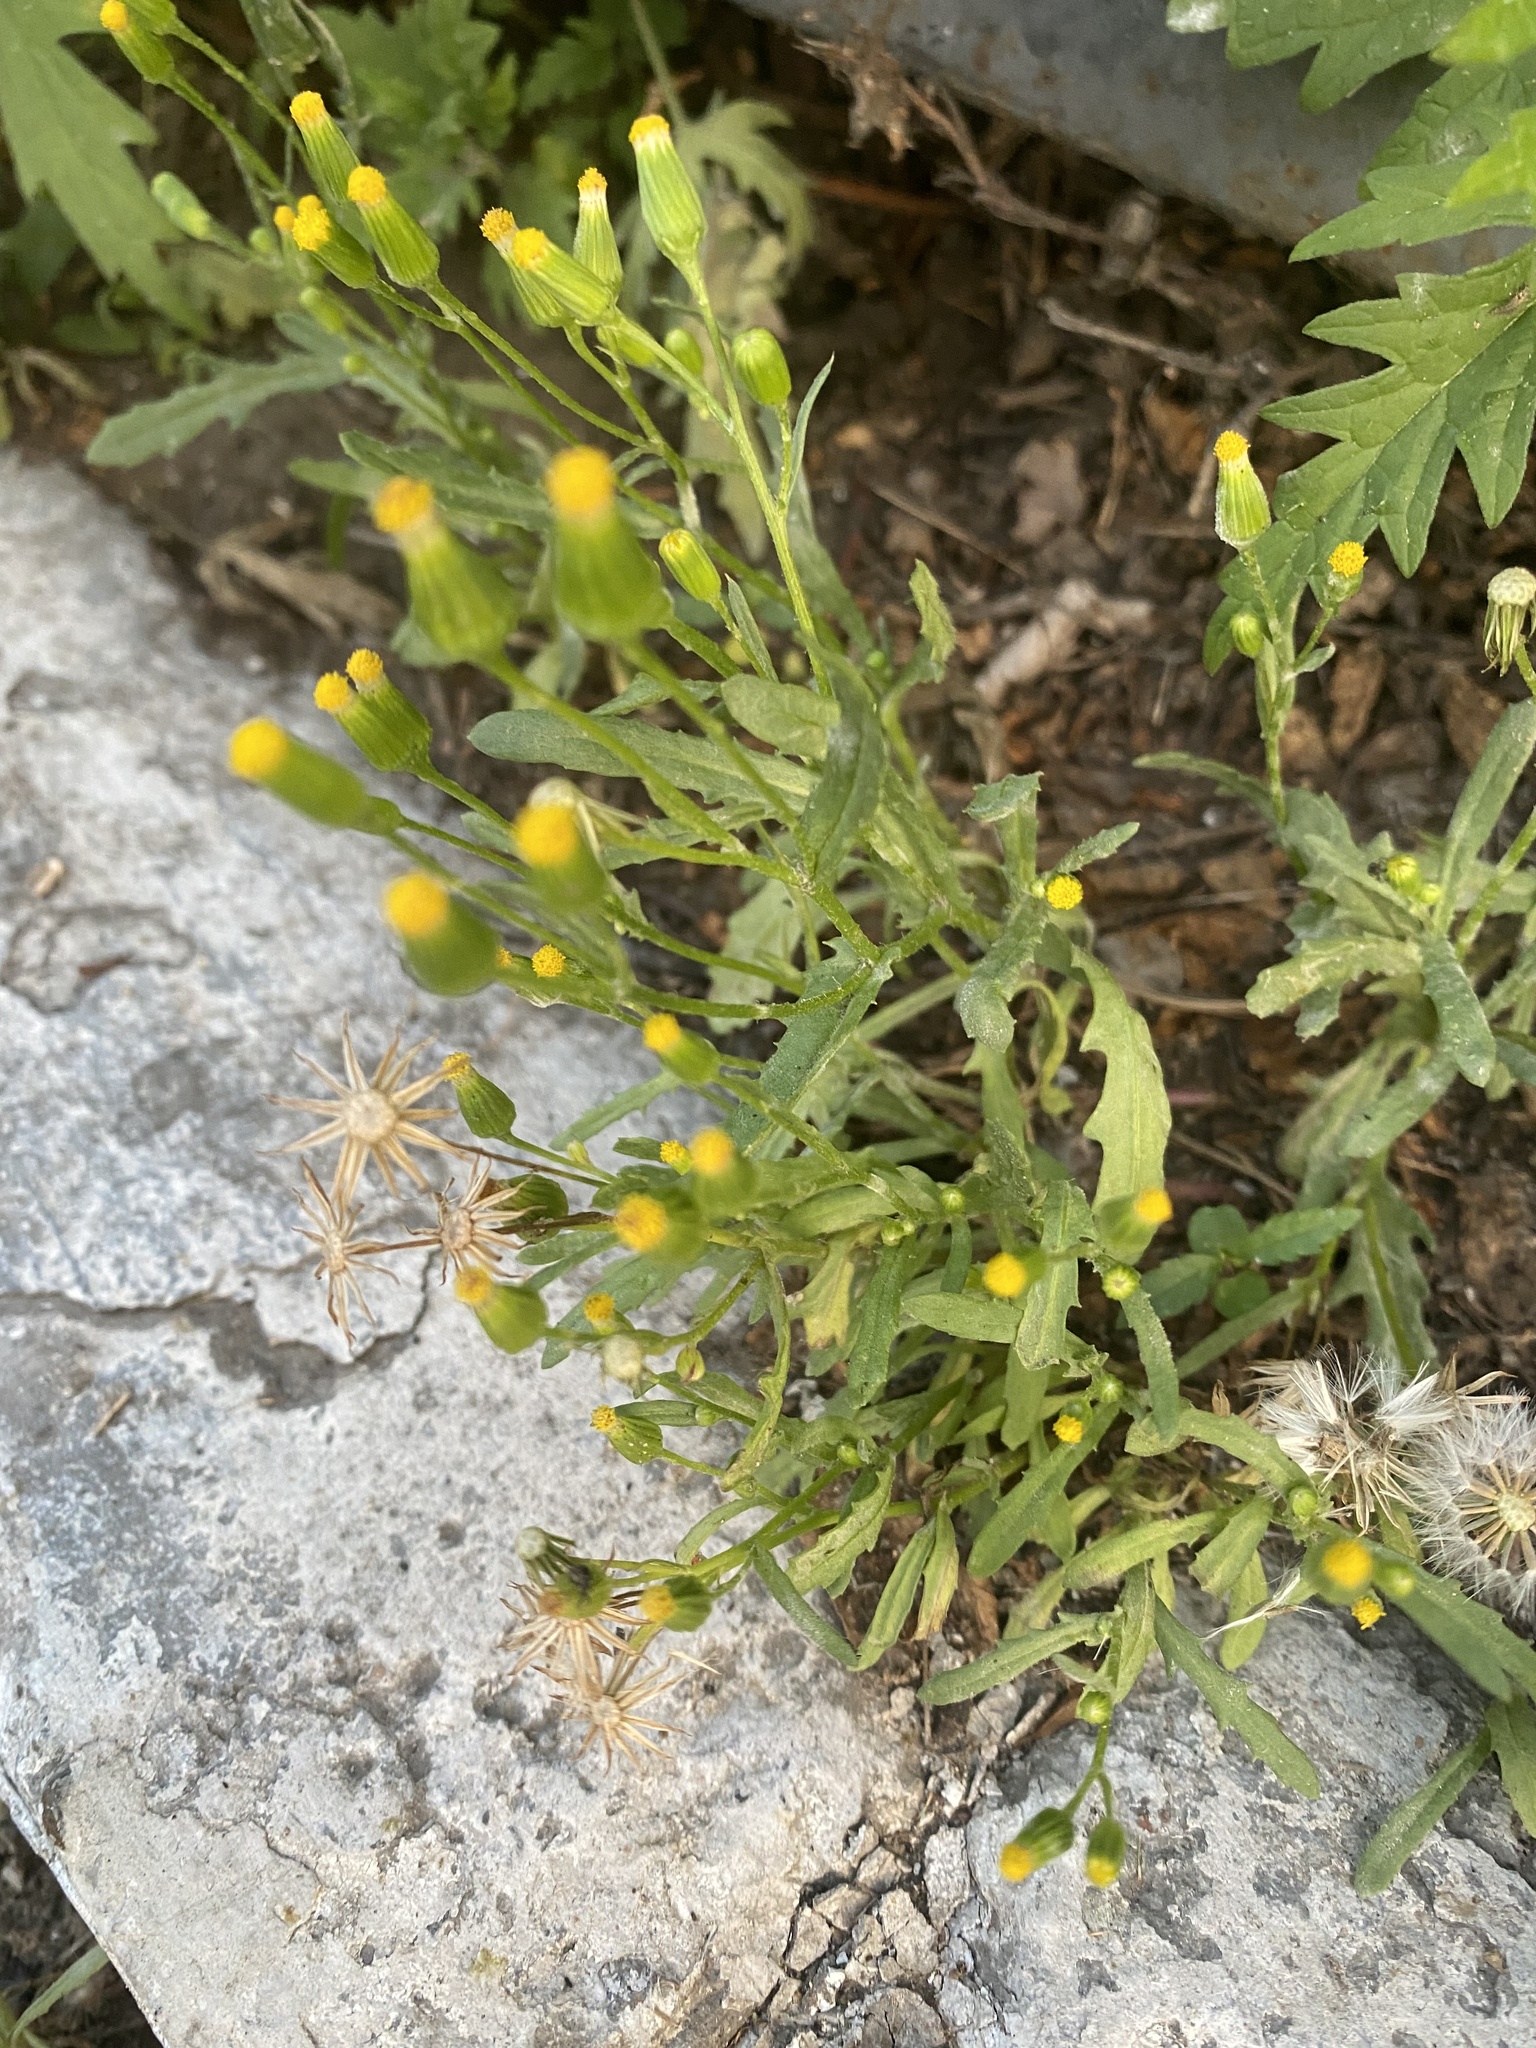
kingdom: Plantae
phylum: Tracheophyta
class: Magnoliopsida
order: Asterales
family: Asteraceae
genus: Senecio
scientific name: Senecio dubitabilis
